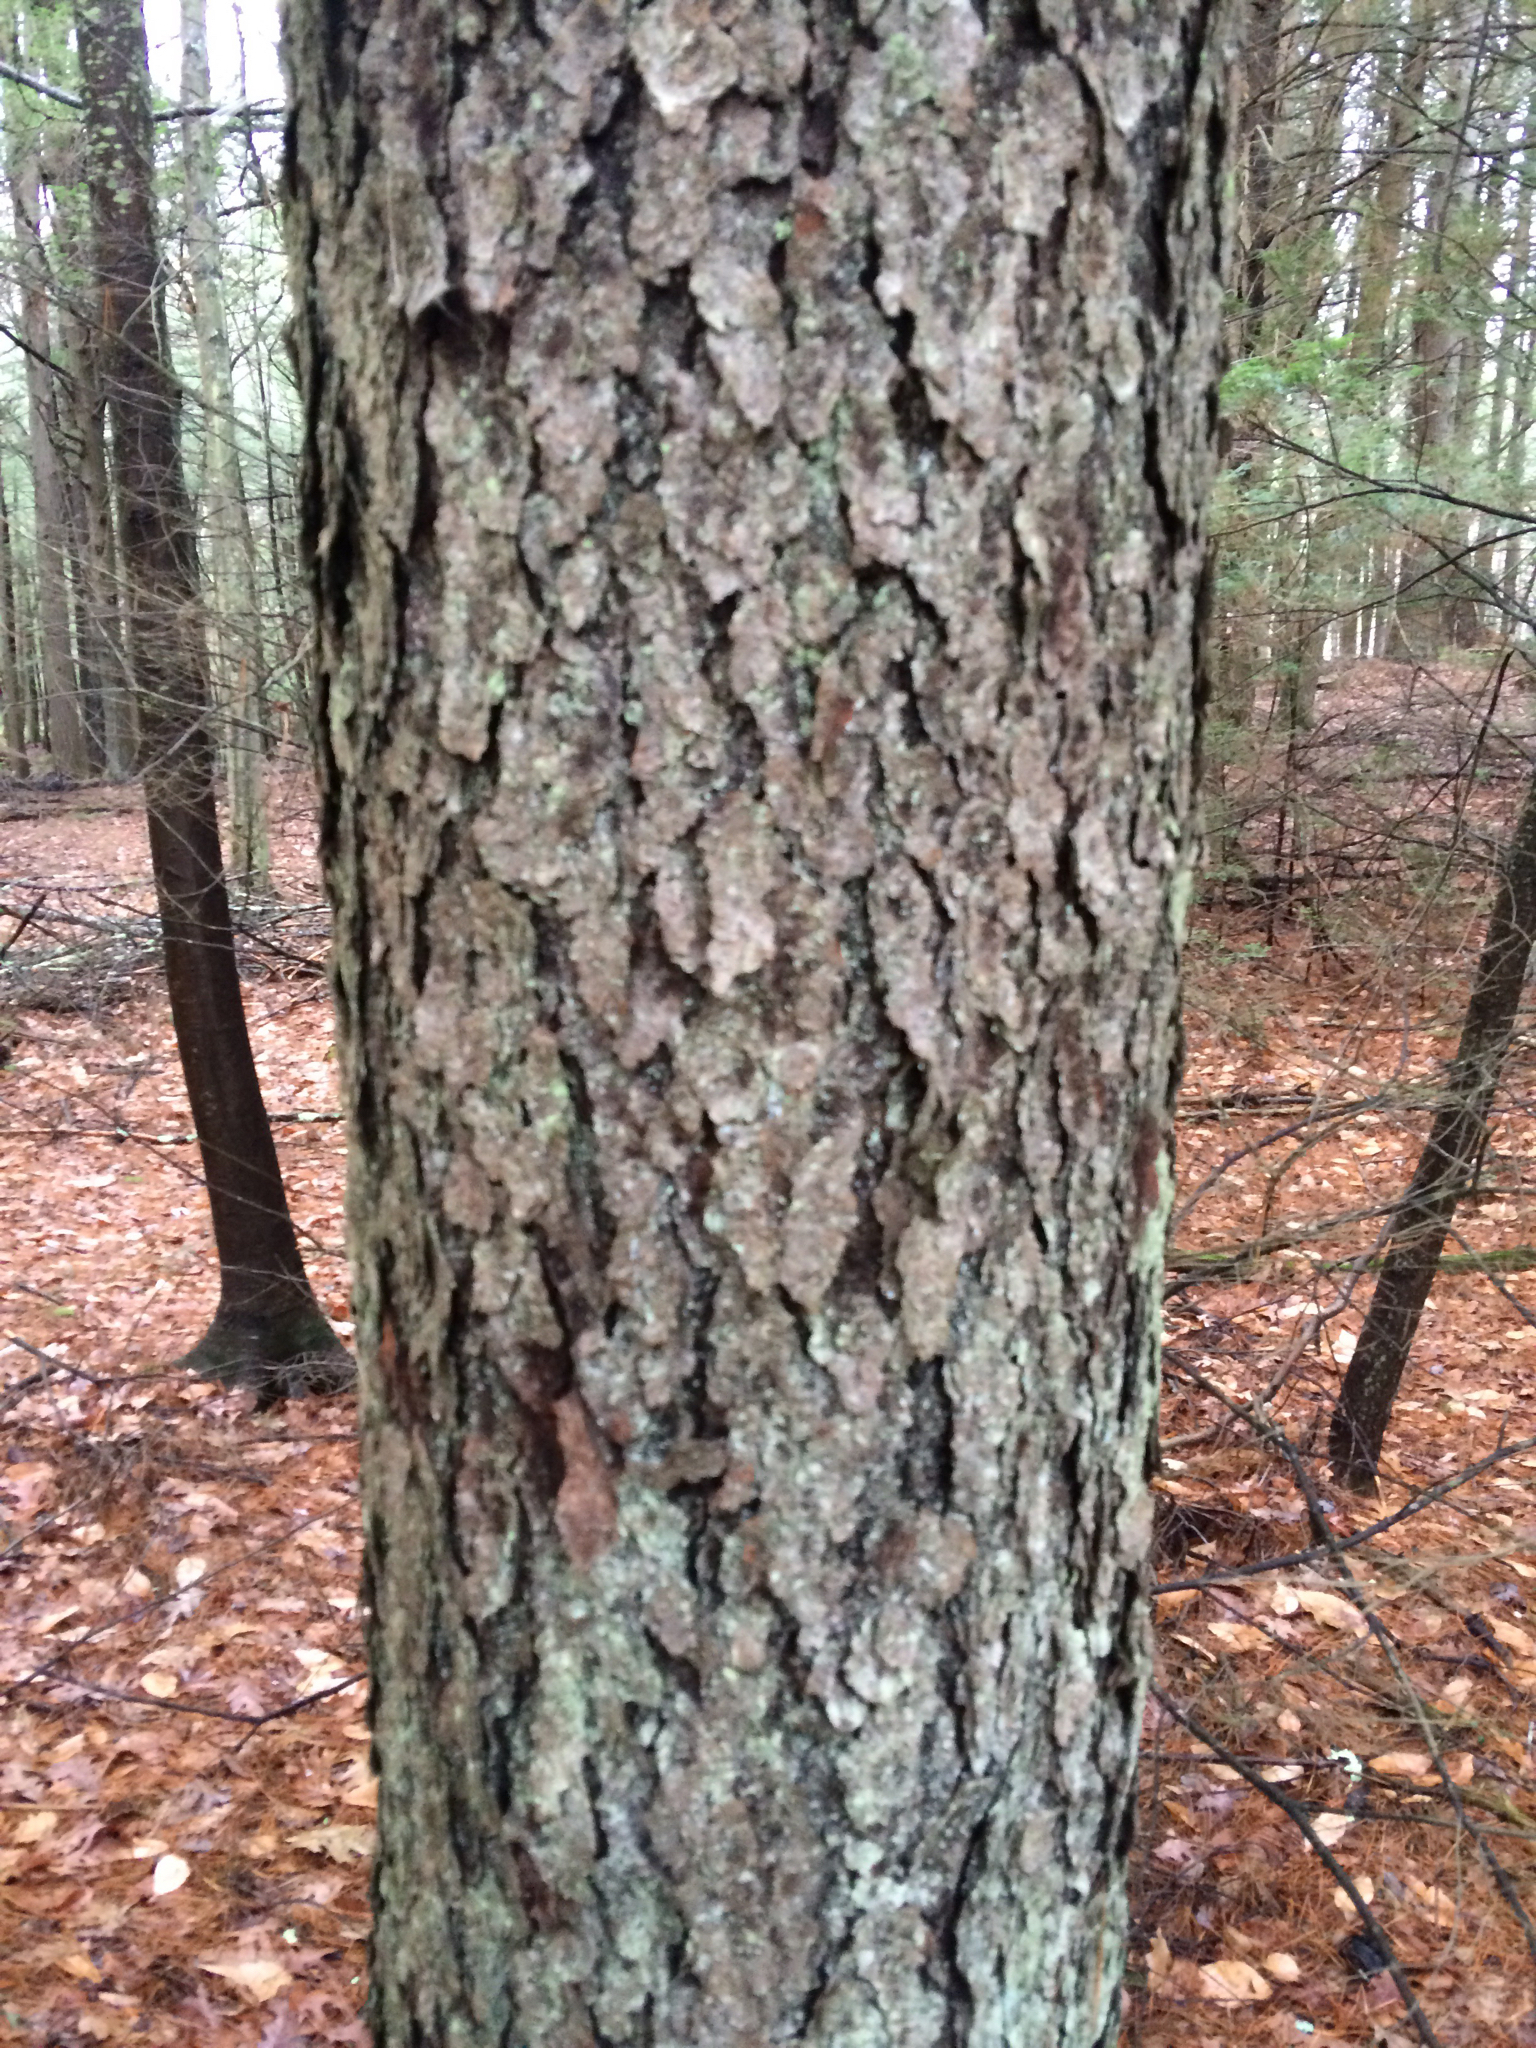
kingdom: Plantae
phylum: Tracheophyta
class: Magnoliopsida
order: Rosales
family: Rosaceae
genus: Prunus
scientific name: Prunus serotina
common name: Black cherry
